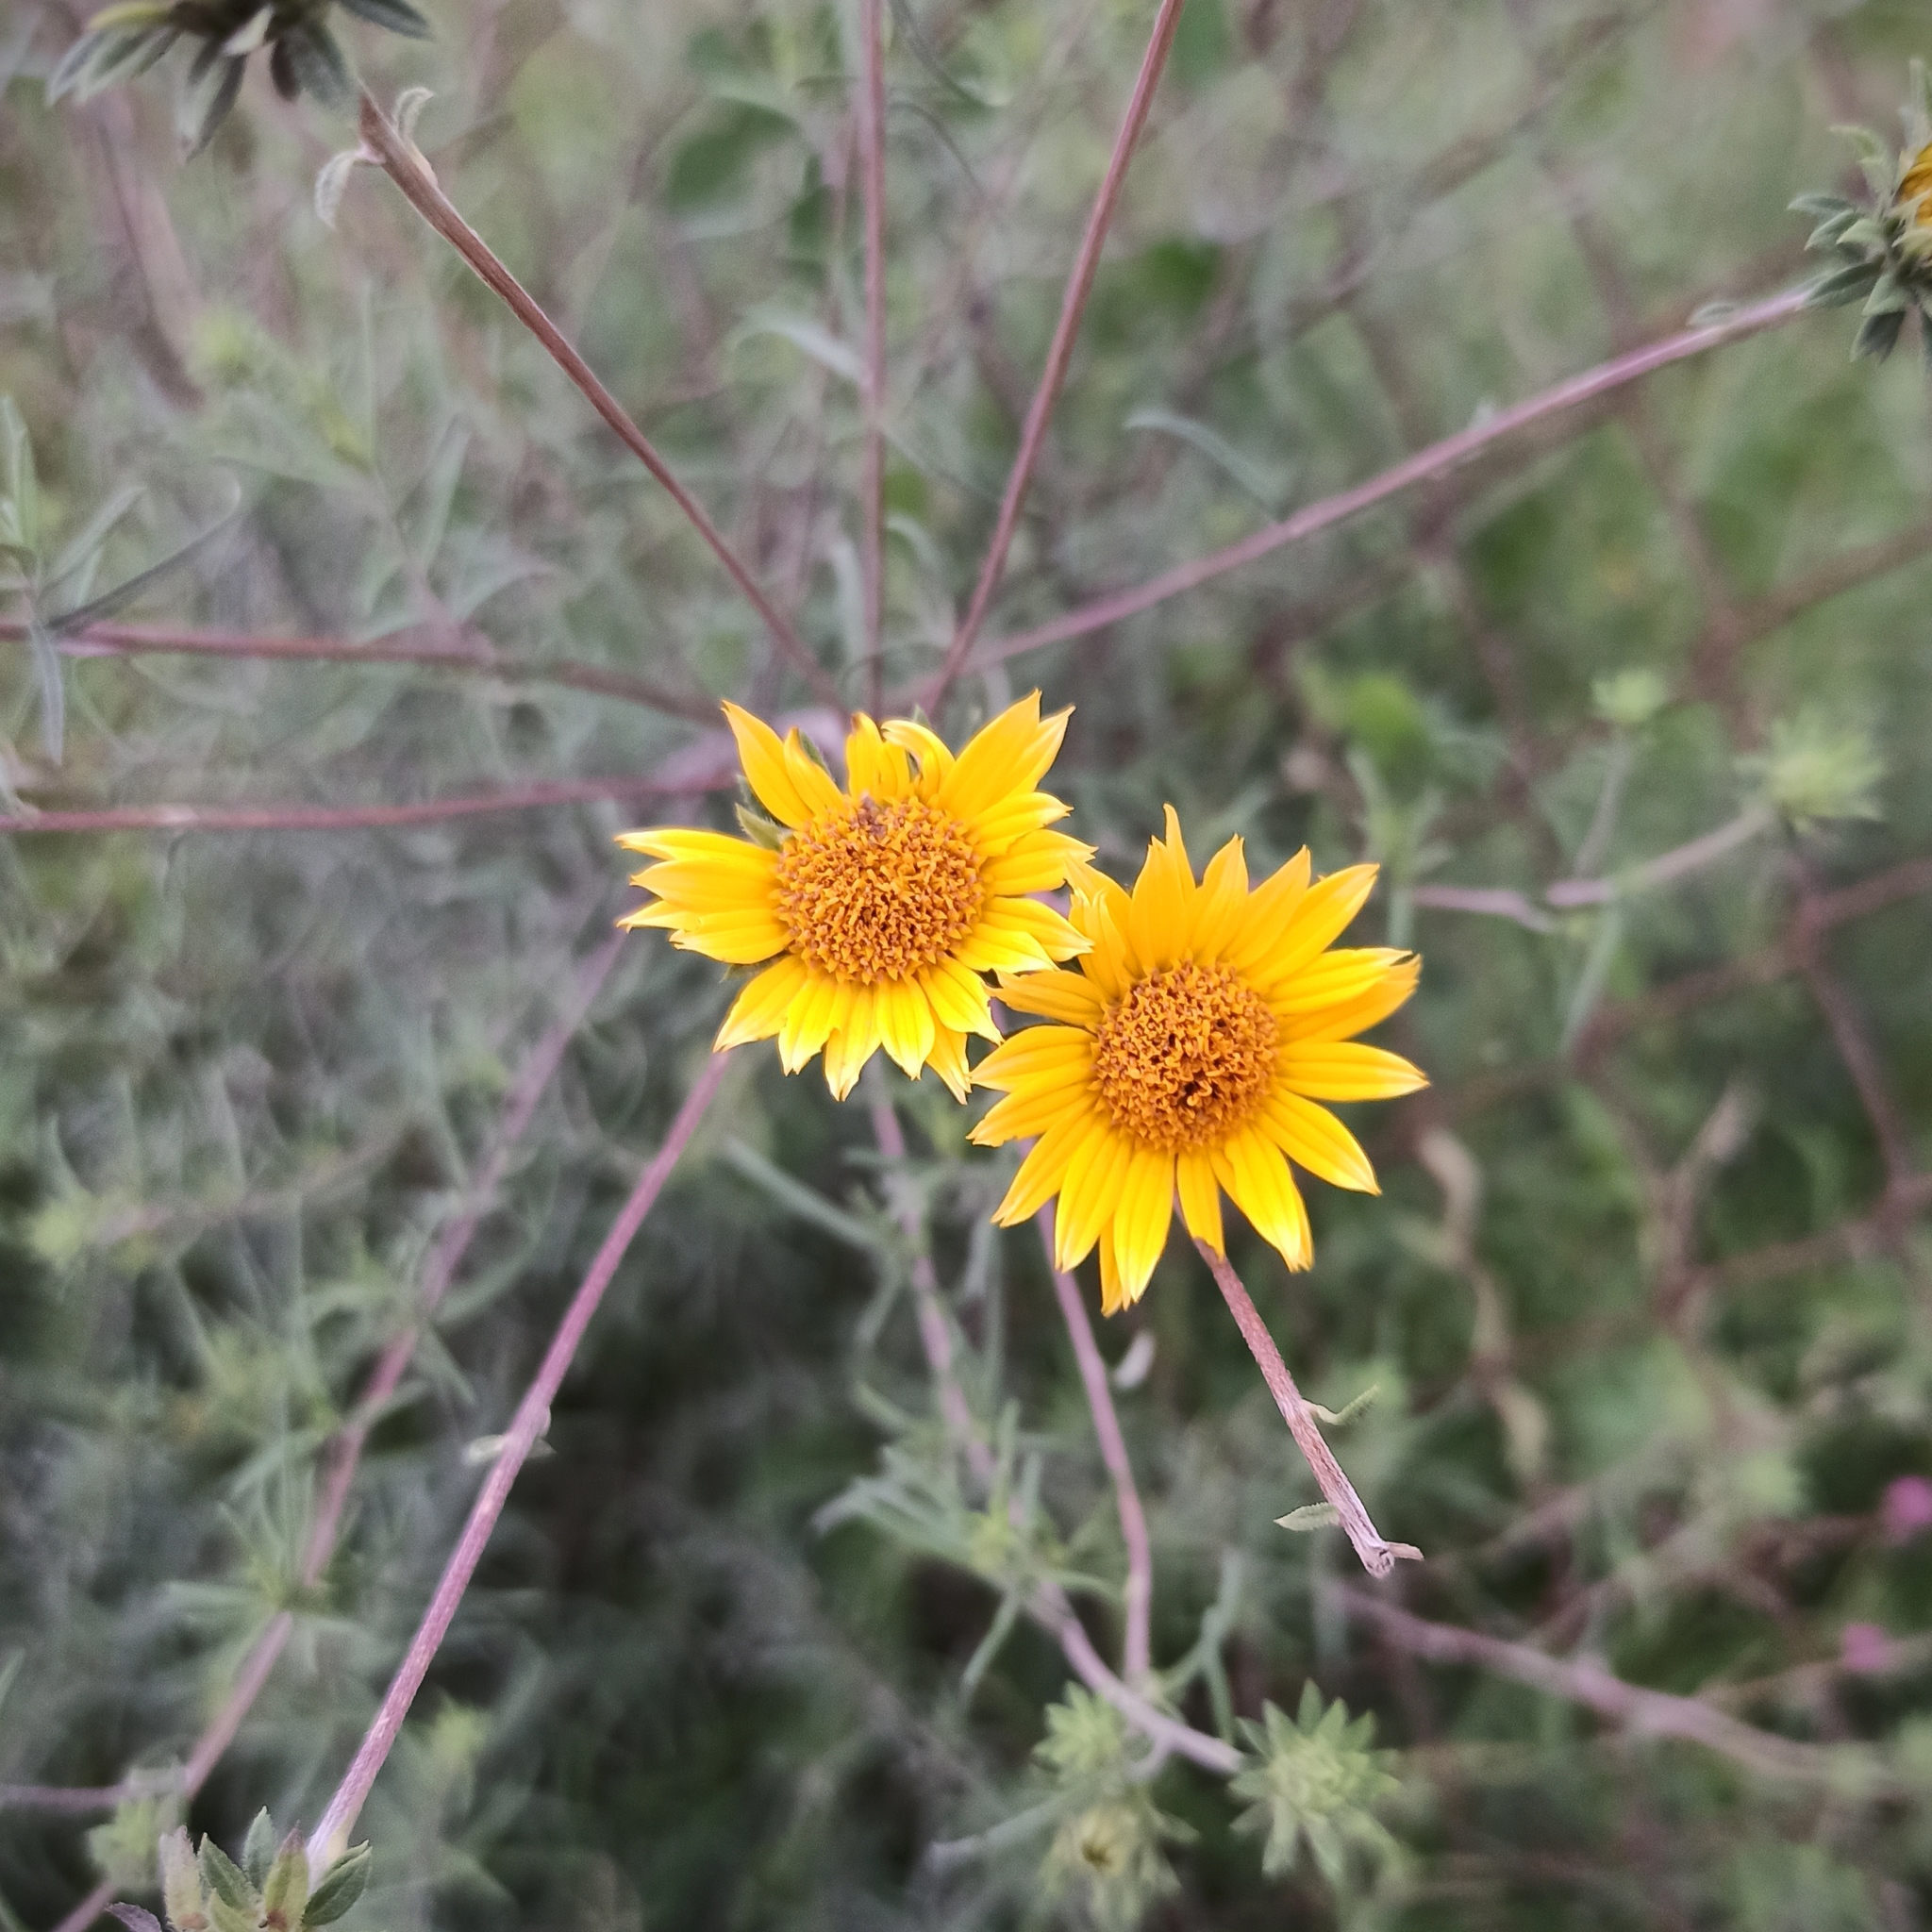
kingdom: Plantae
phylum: Tracheophyta
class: Magnoliopsida
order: Asterales
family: Asteraceae
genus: Aldama
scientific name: Aldama linearis
